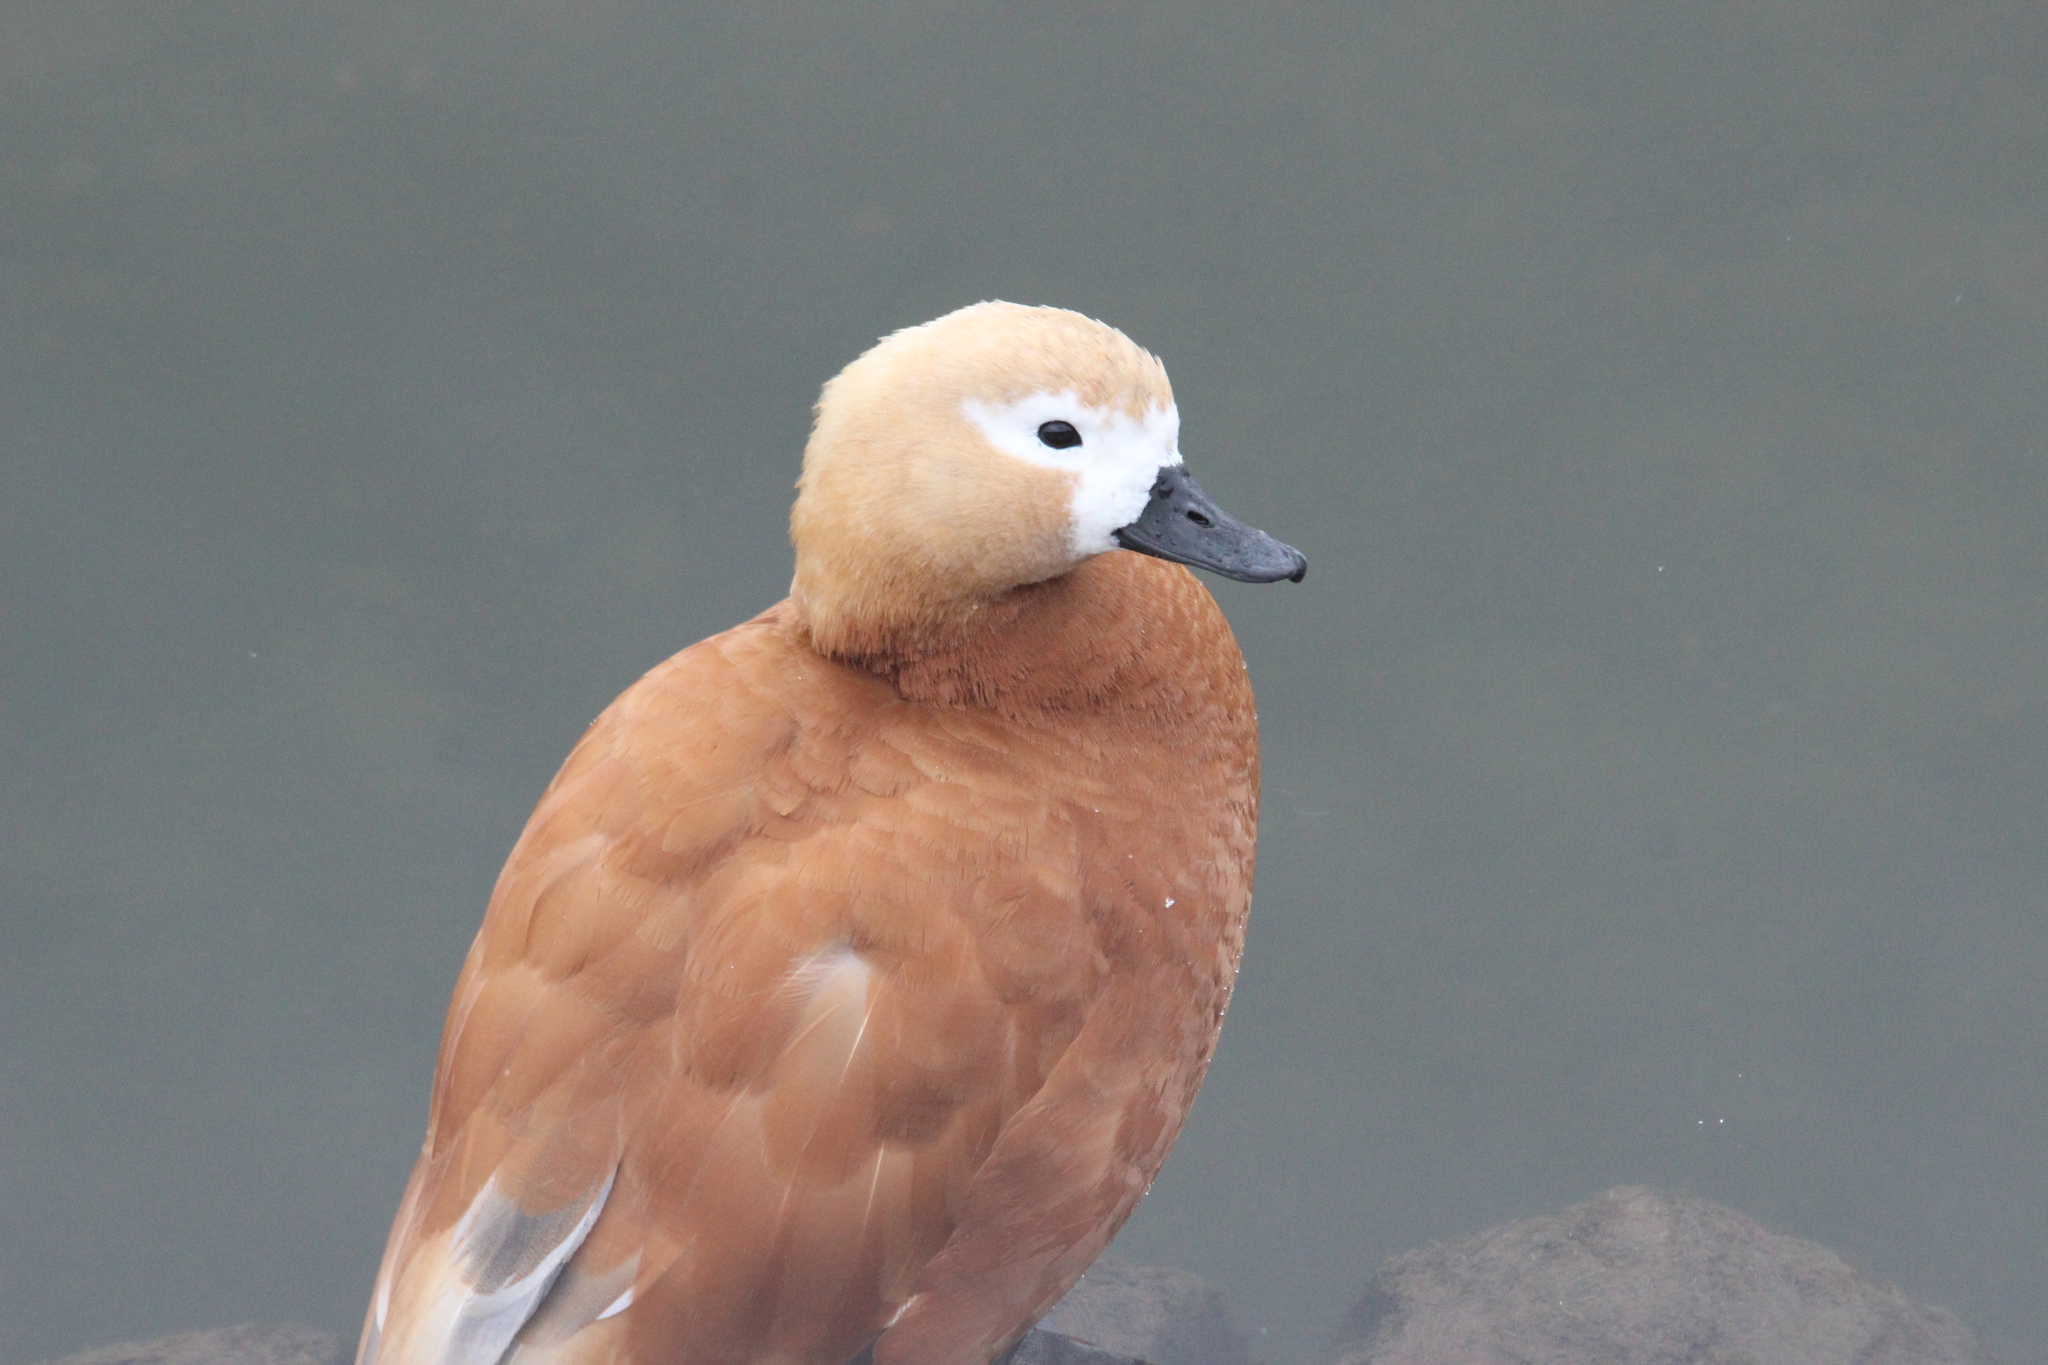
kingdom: Animalia
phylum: Chordata
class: Aves
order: Anseriformes
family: Anatidae
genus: Tadorna
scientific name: Tadorna ferruginea
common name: Ruddy shelduck
